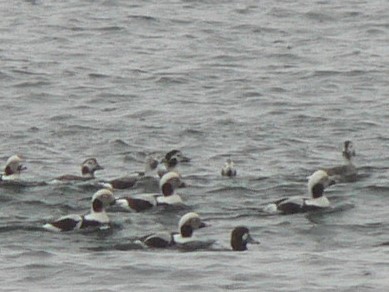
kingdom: Animalia
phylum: Chordata
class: Aves
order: Anseriformes
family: Anatidae
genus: Clangula
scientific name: Clangula hyemalis
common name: Long-tailed duck
